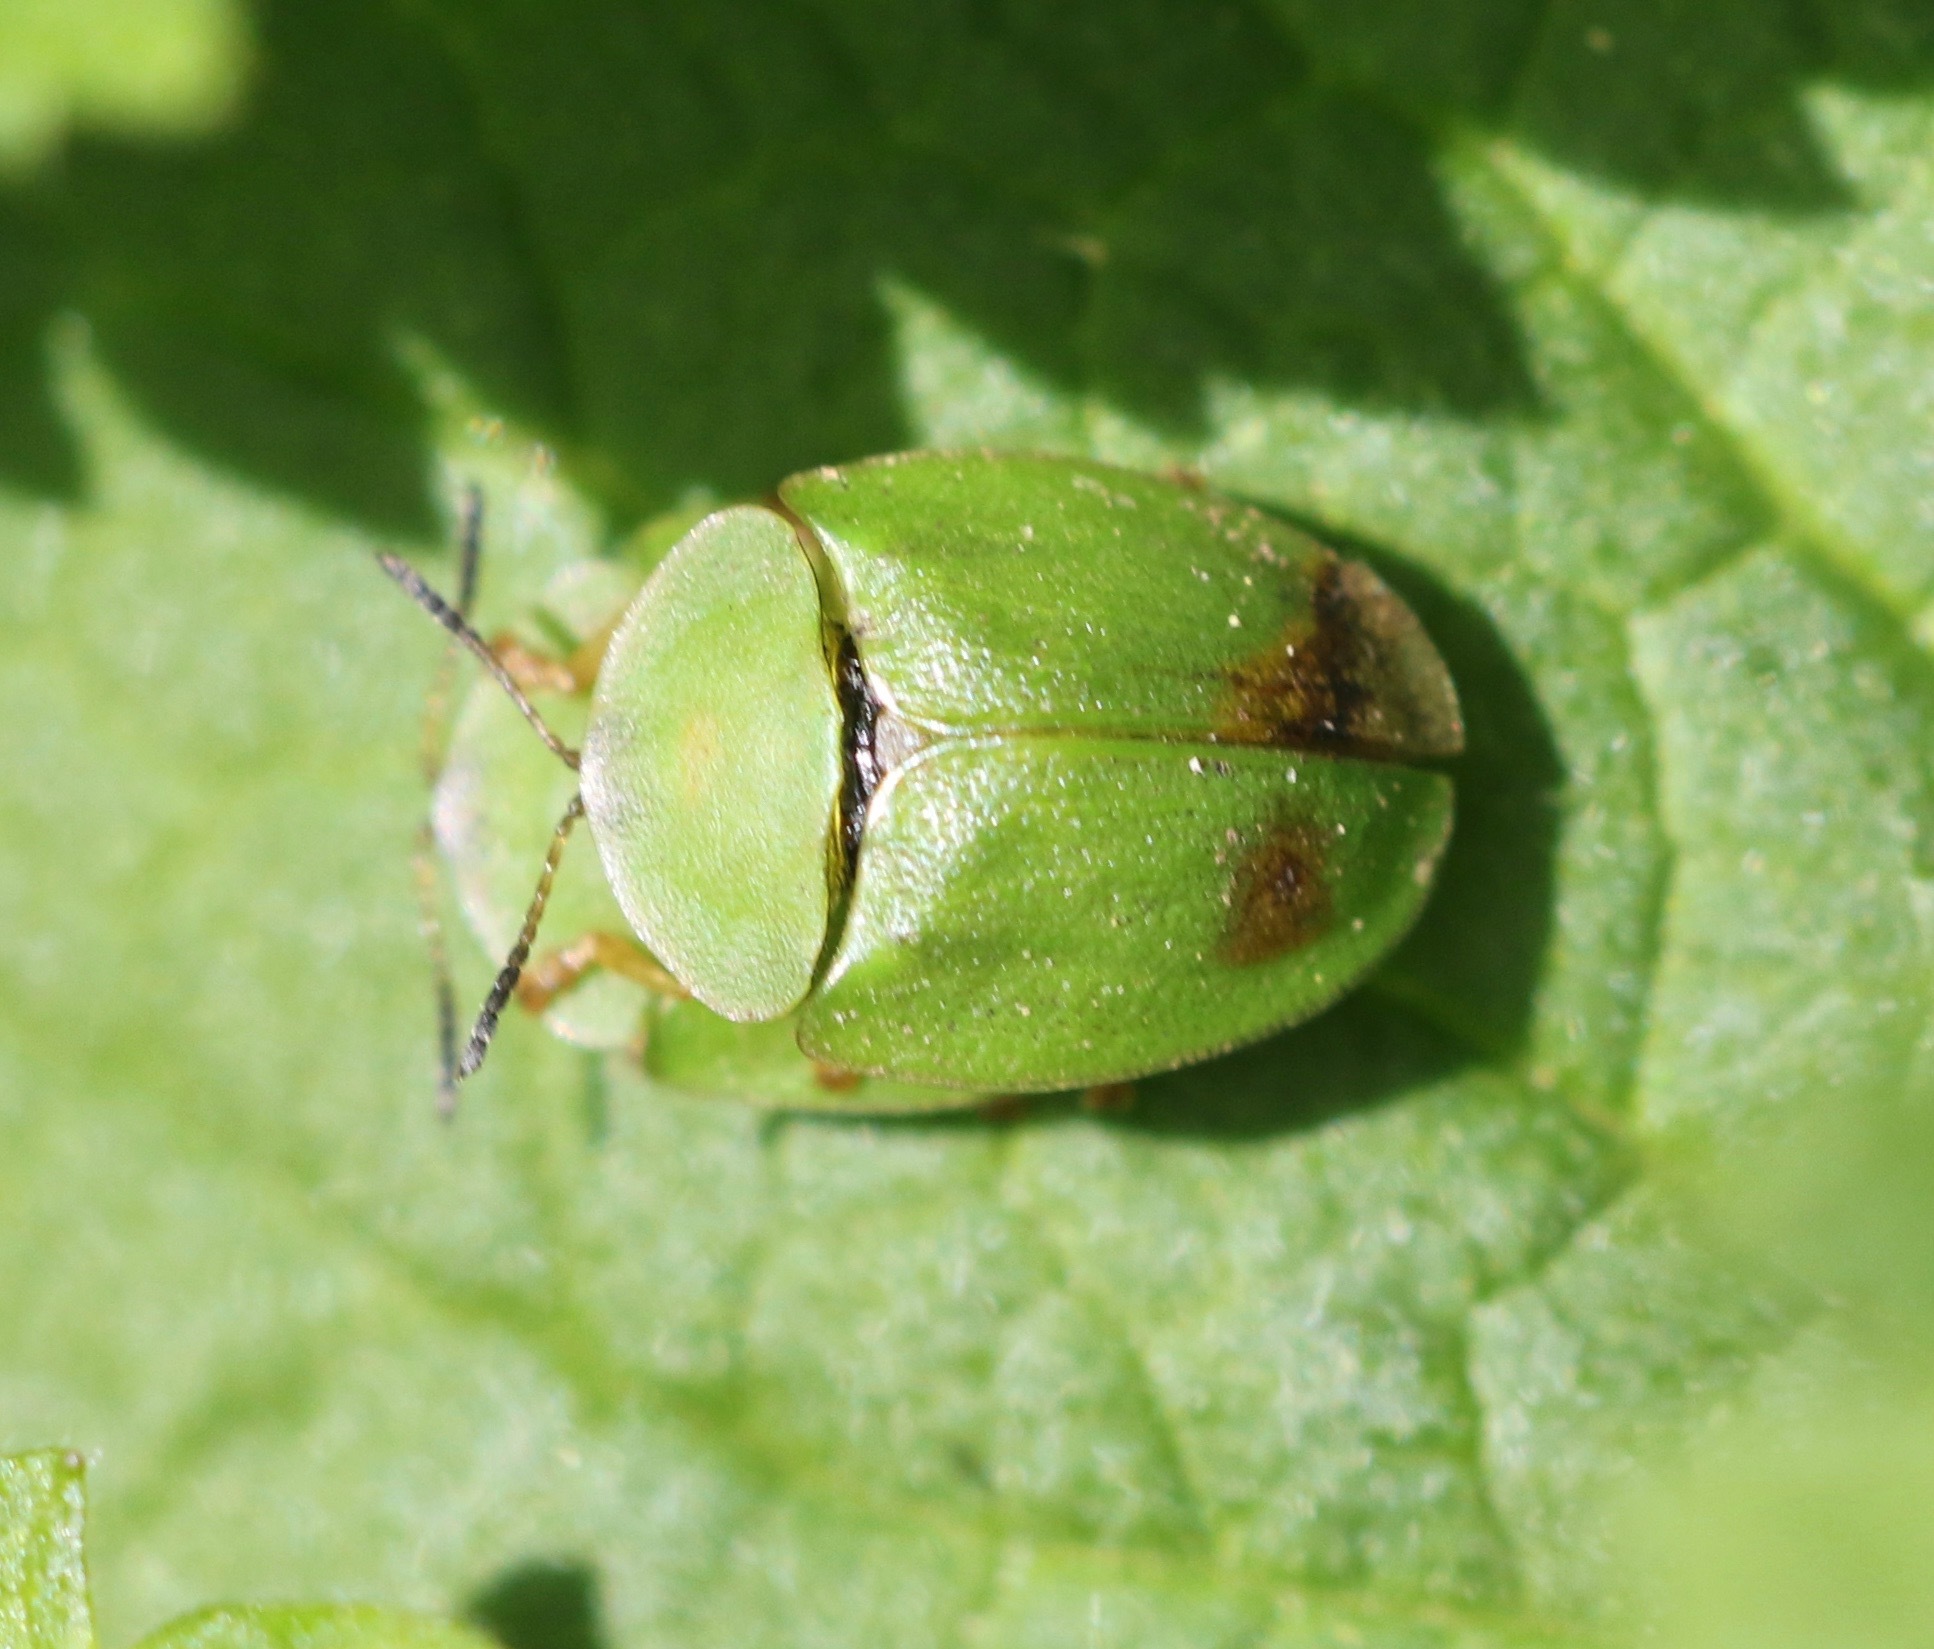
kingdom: Animalia
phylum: Arthropoda
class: Insecta
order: Coleoptera
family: Chrysomelidae
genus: Cassida
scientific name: Cassida viridis
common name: Green tortoise beetle
